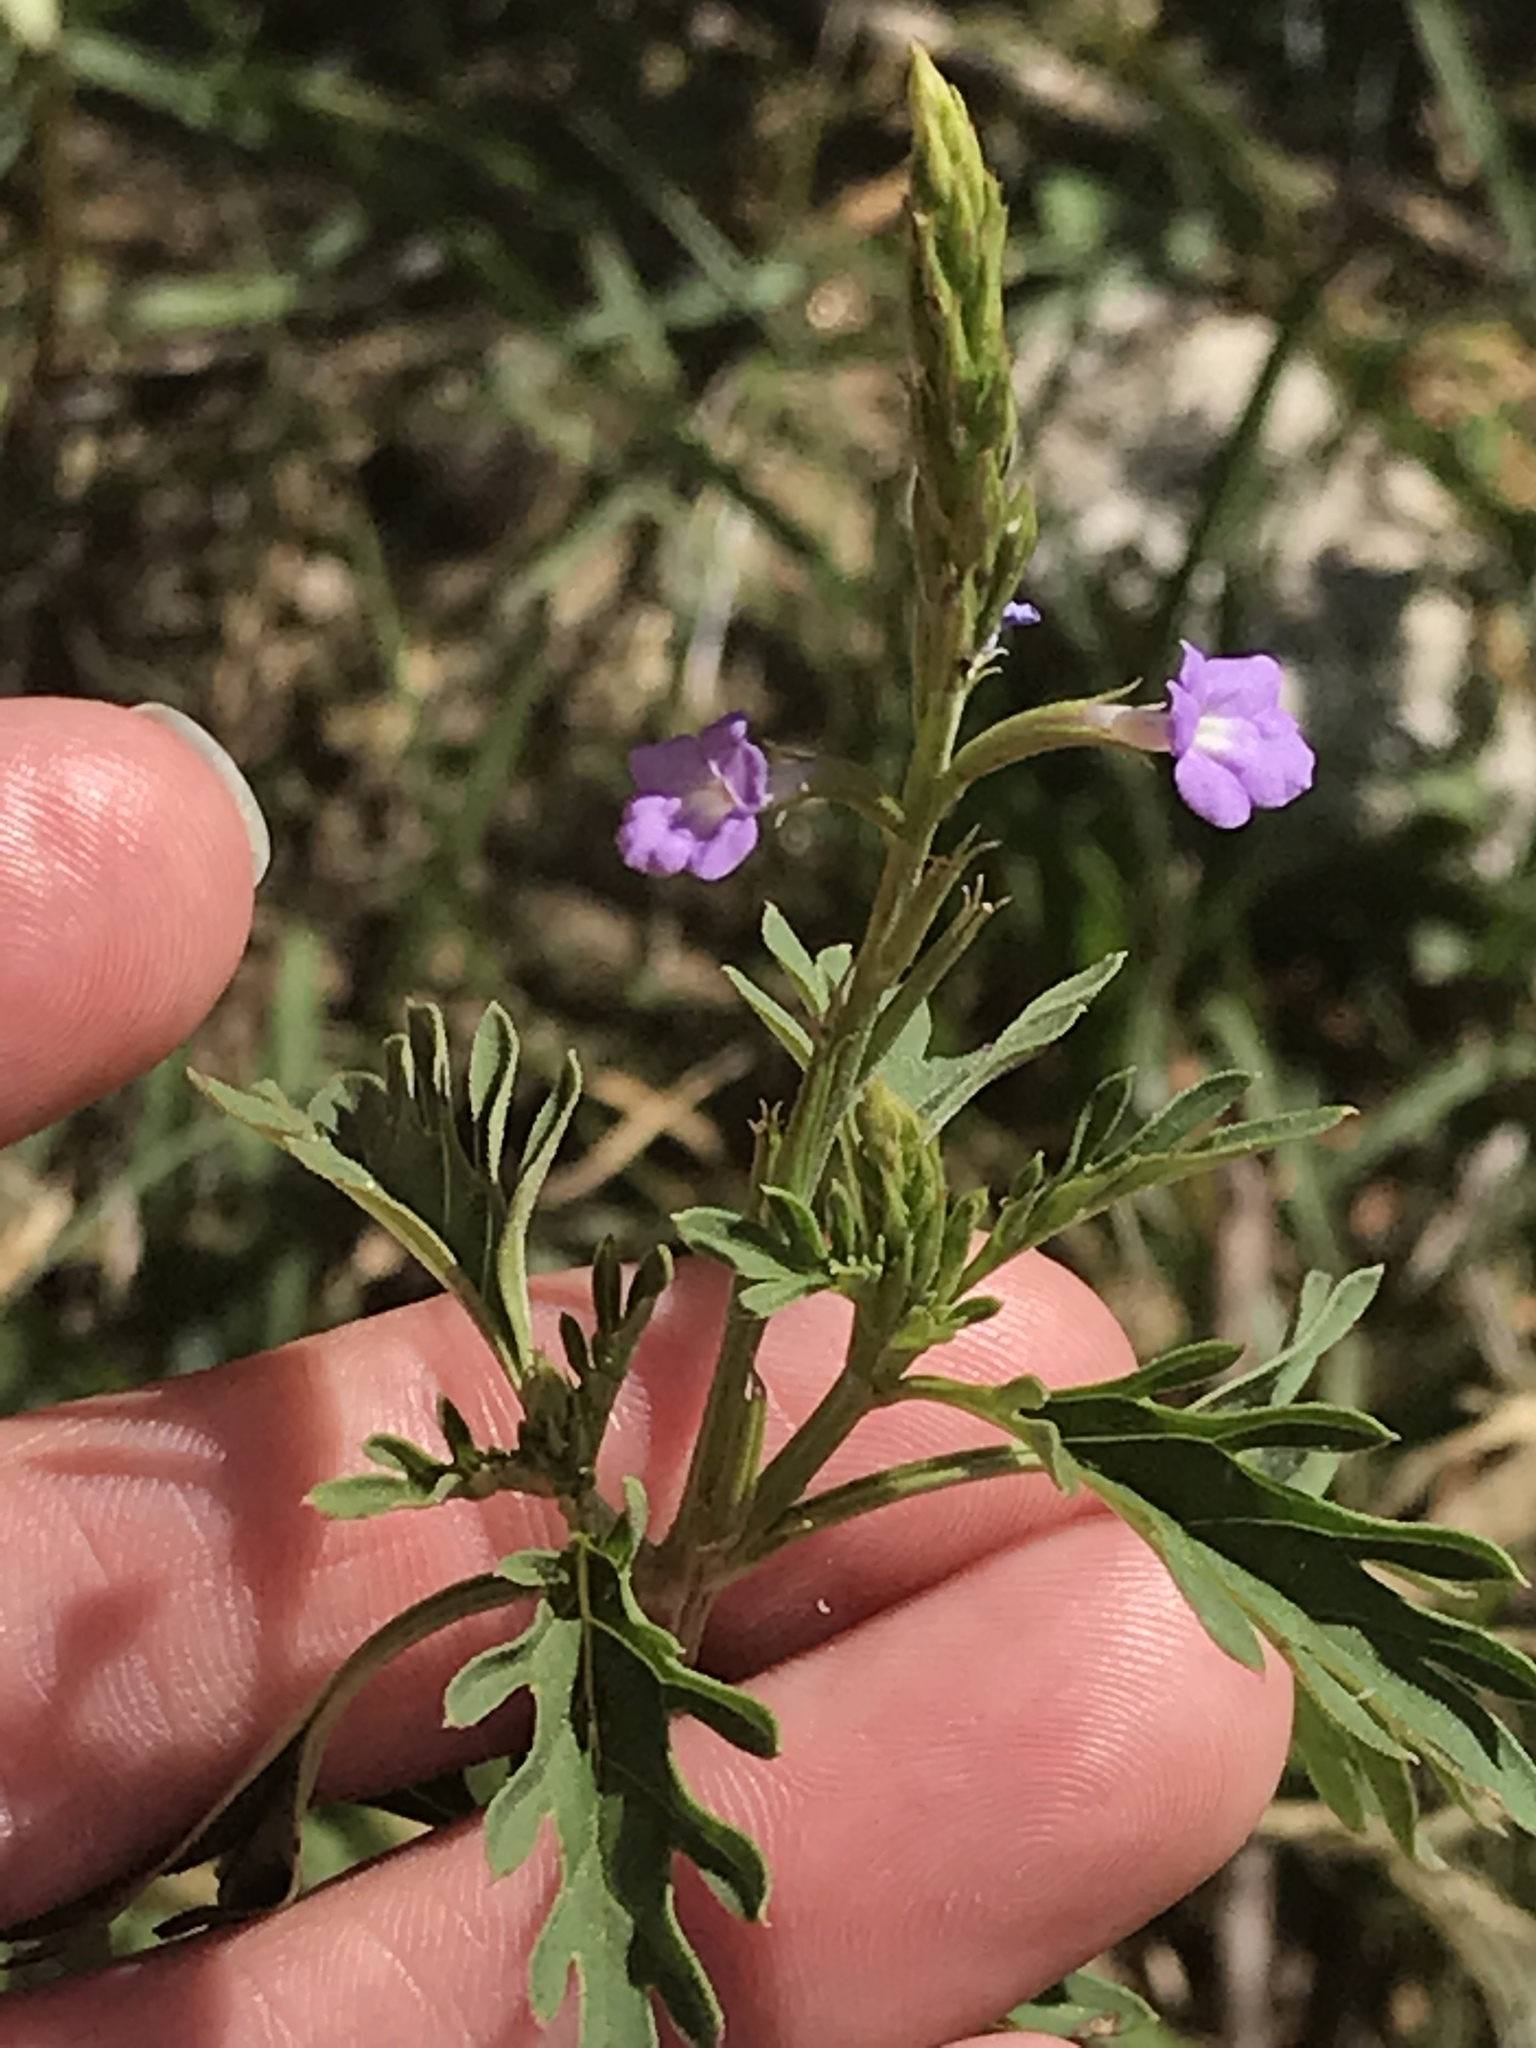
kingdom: Plantae
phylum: Tracheophyta
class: Magnoliopsida
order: Lamiales
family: Verbenaceae
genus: Bouchea
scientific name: Bouchea dissecta
